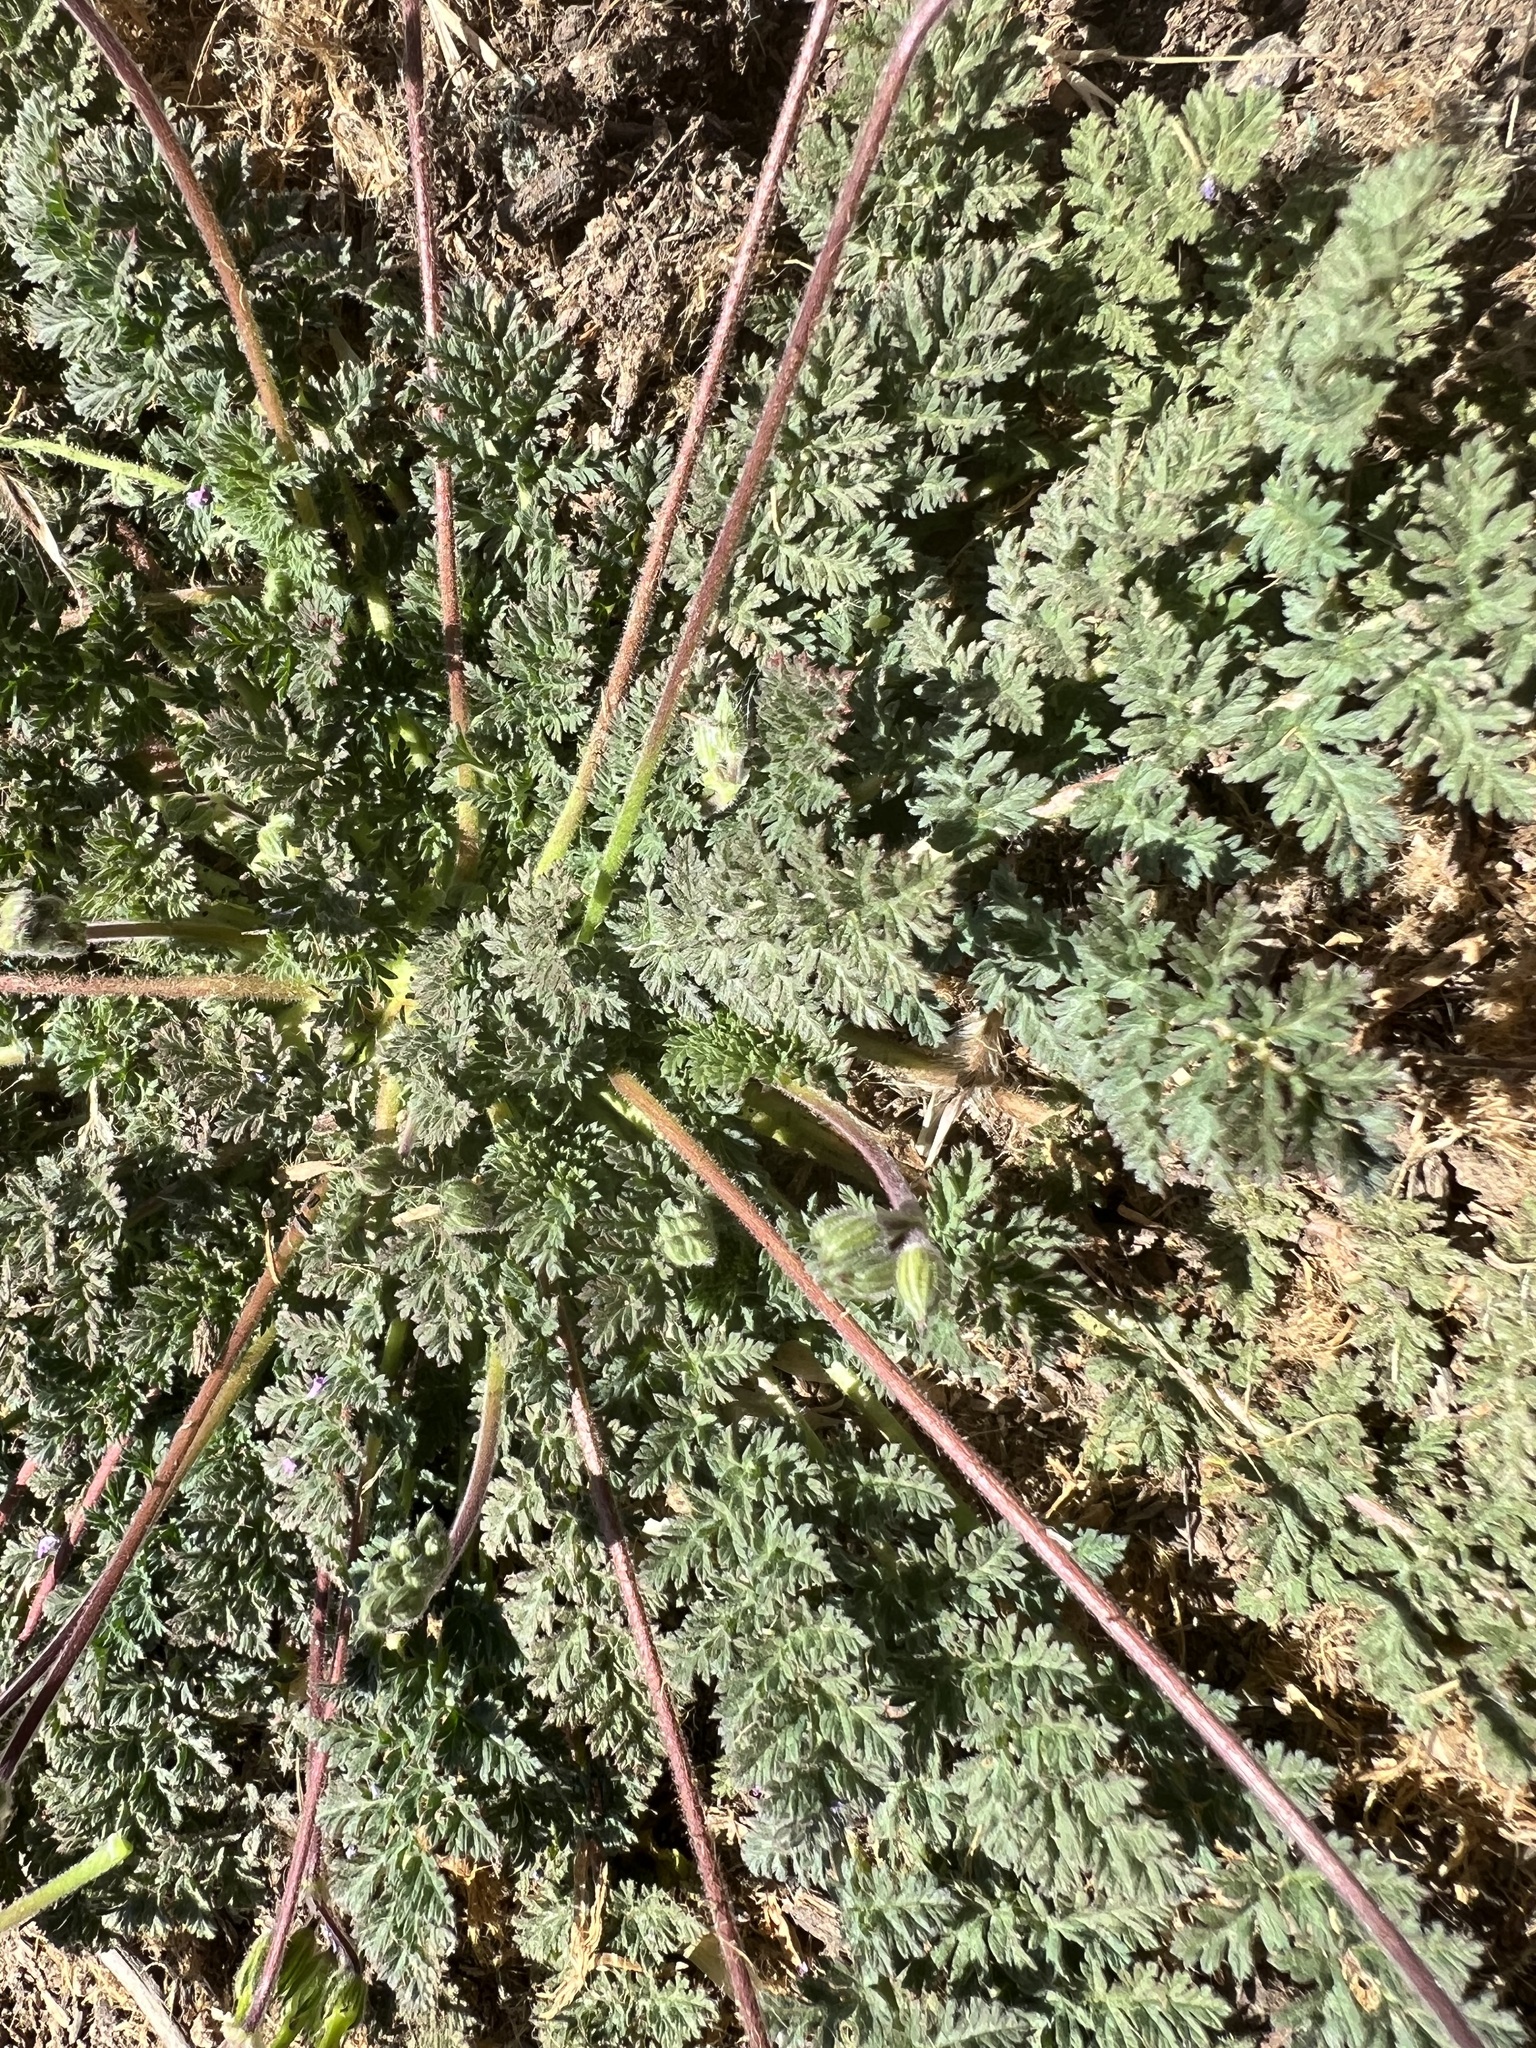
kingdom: Plantae
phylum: Tracheophyta
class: Magnoliopsida
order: Geraniales
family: Geraniaceae
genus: Erodium
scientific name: Erodium cicutarium
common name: Common stork's-bill
